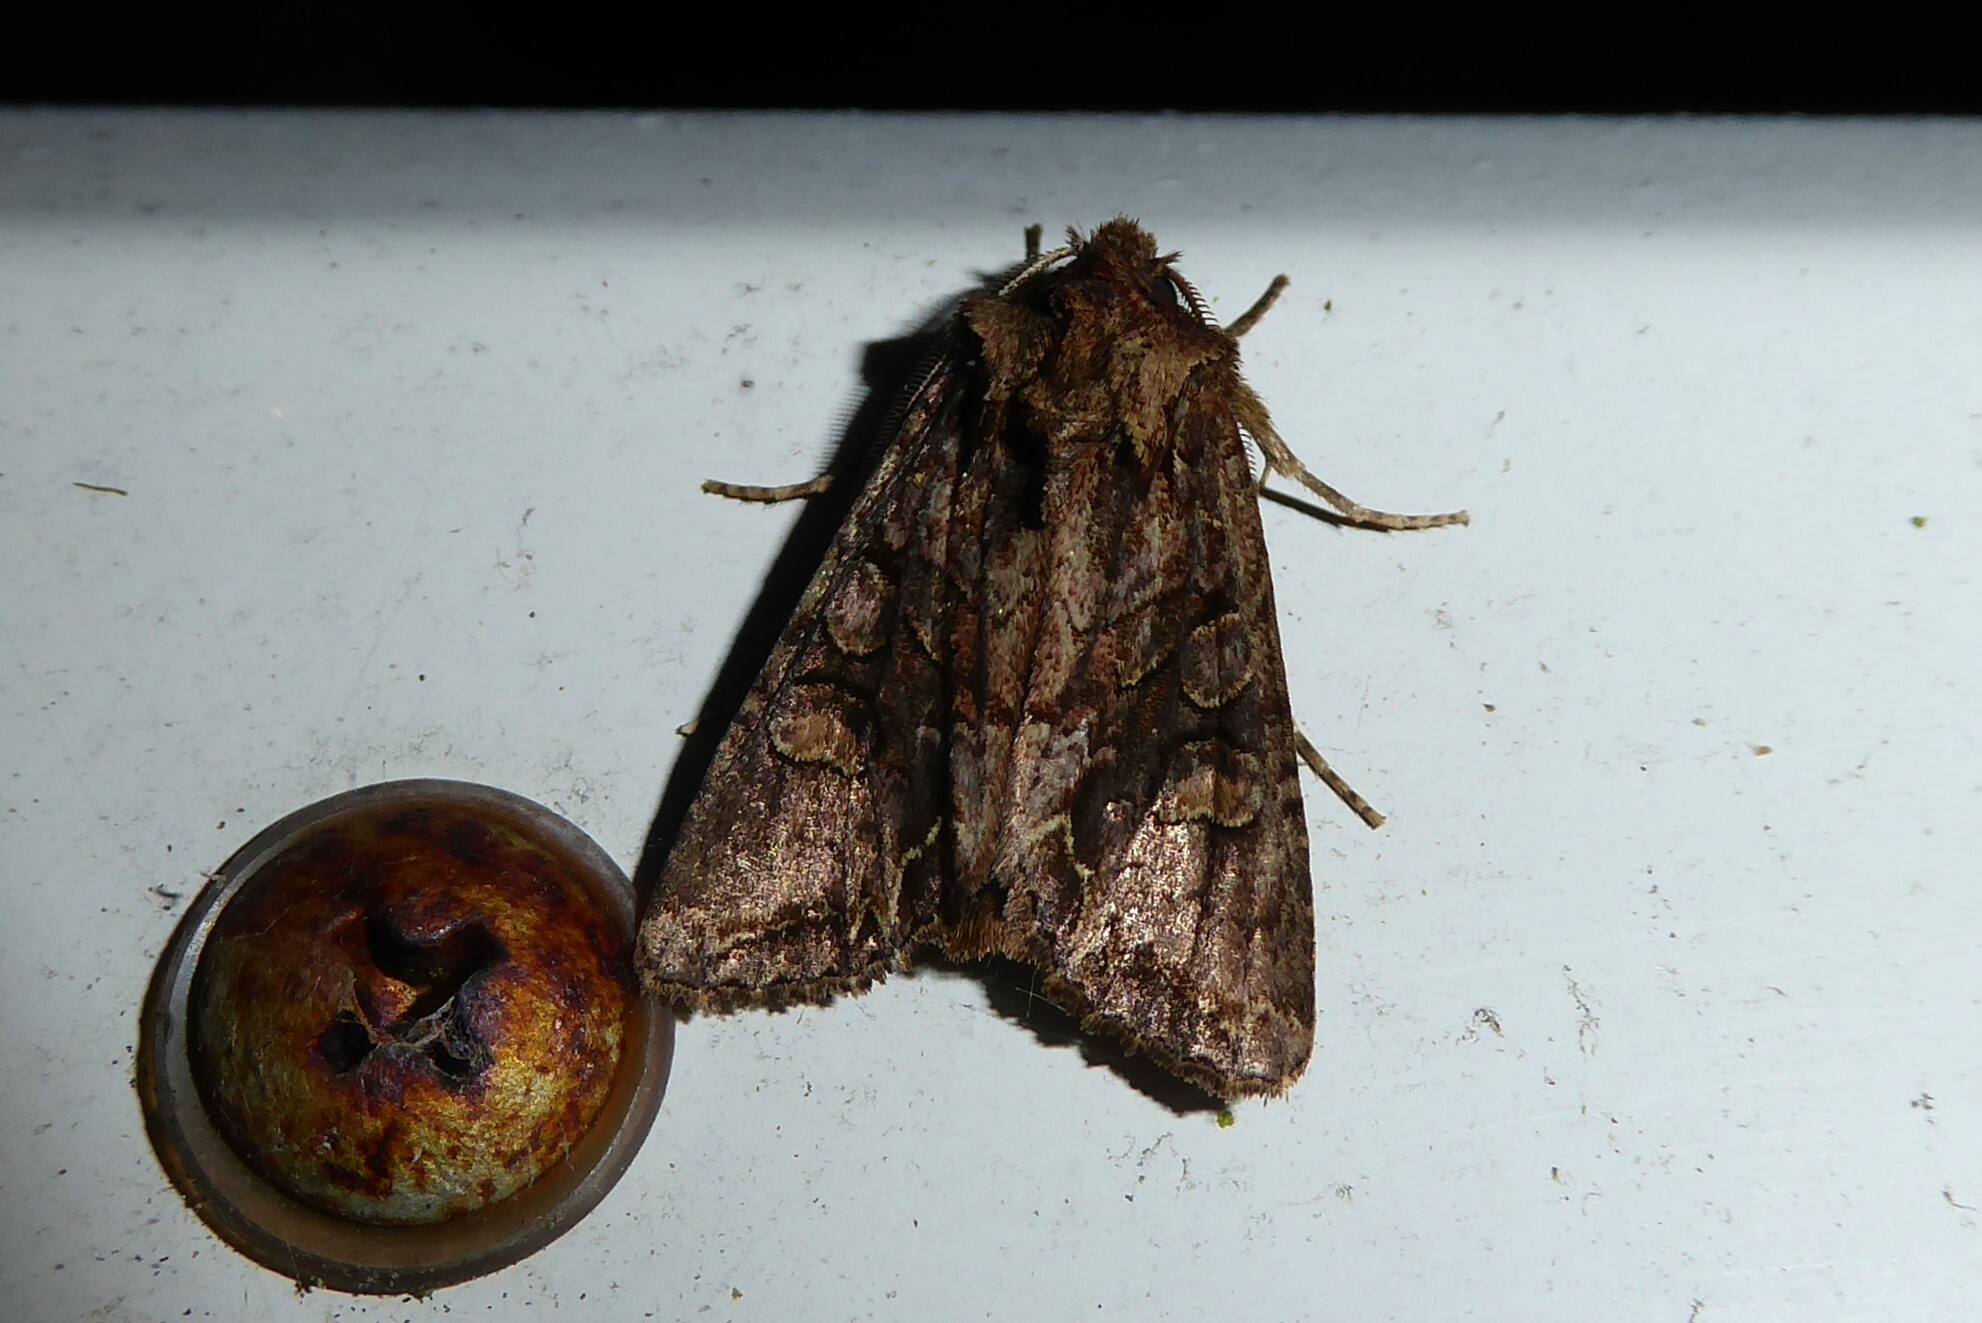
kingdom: Animalia
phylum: Arthropoda
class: Insecta
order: Lepidoptera
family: Noctuidae
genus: Ichneutica
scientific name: Ichneutica insignis
